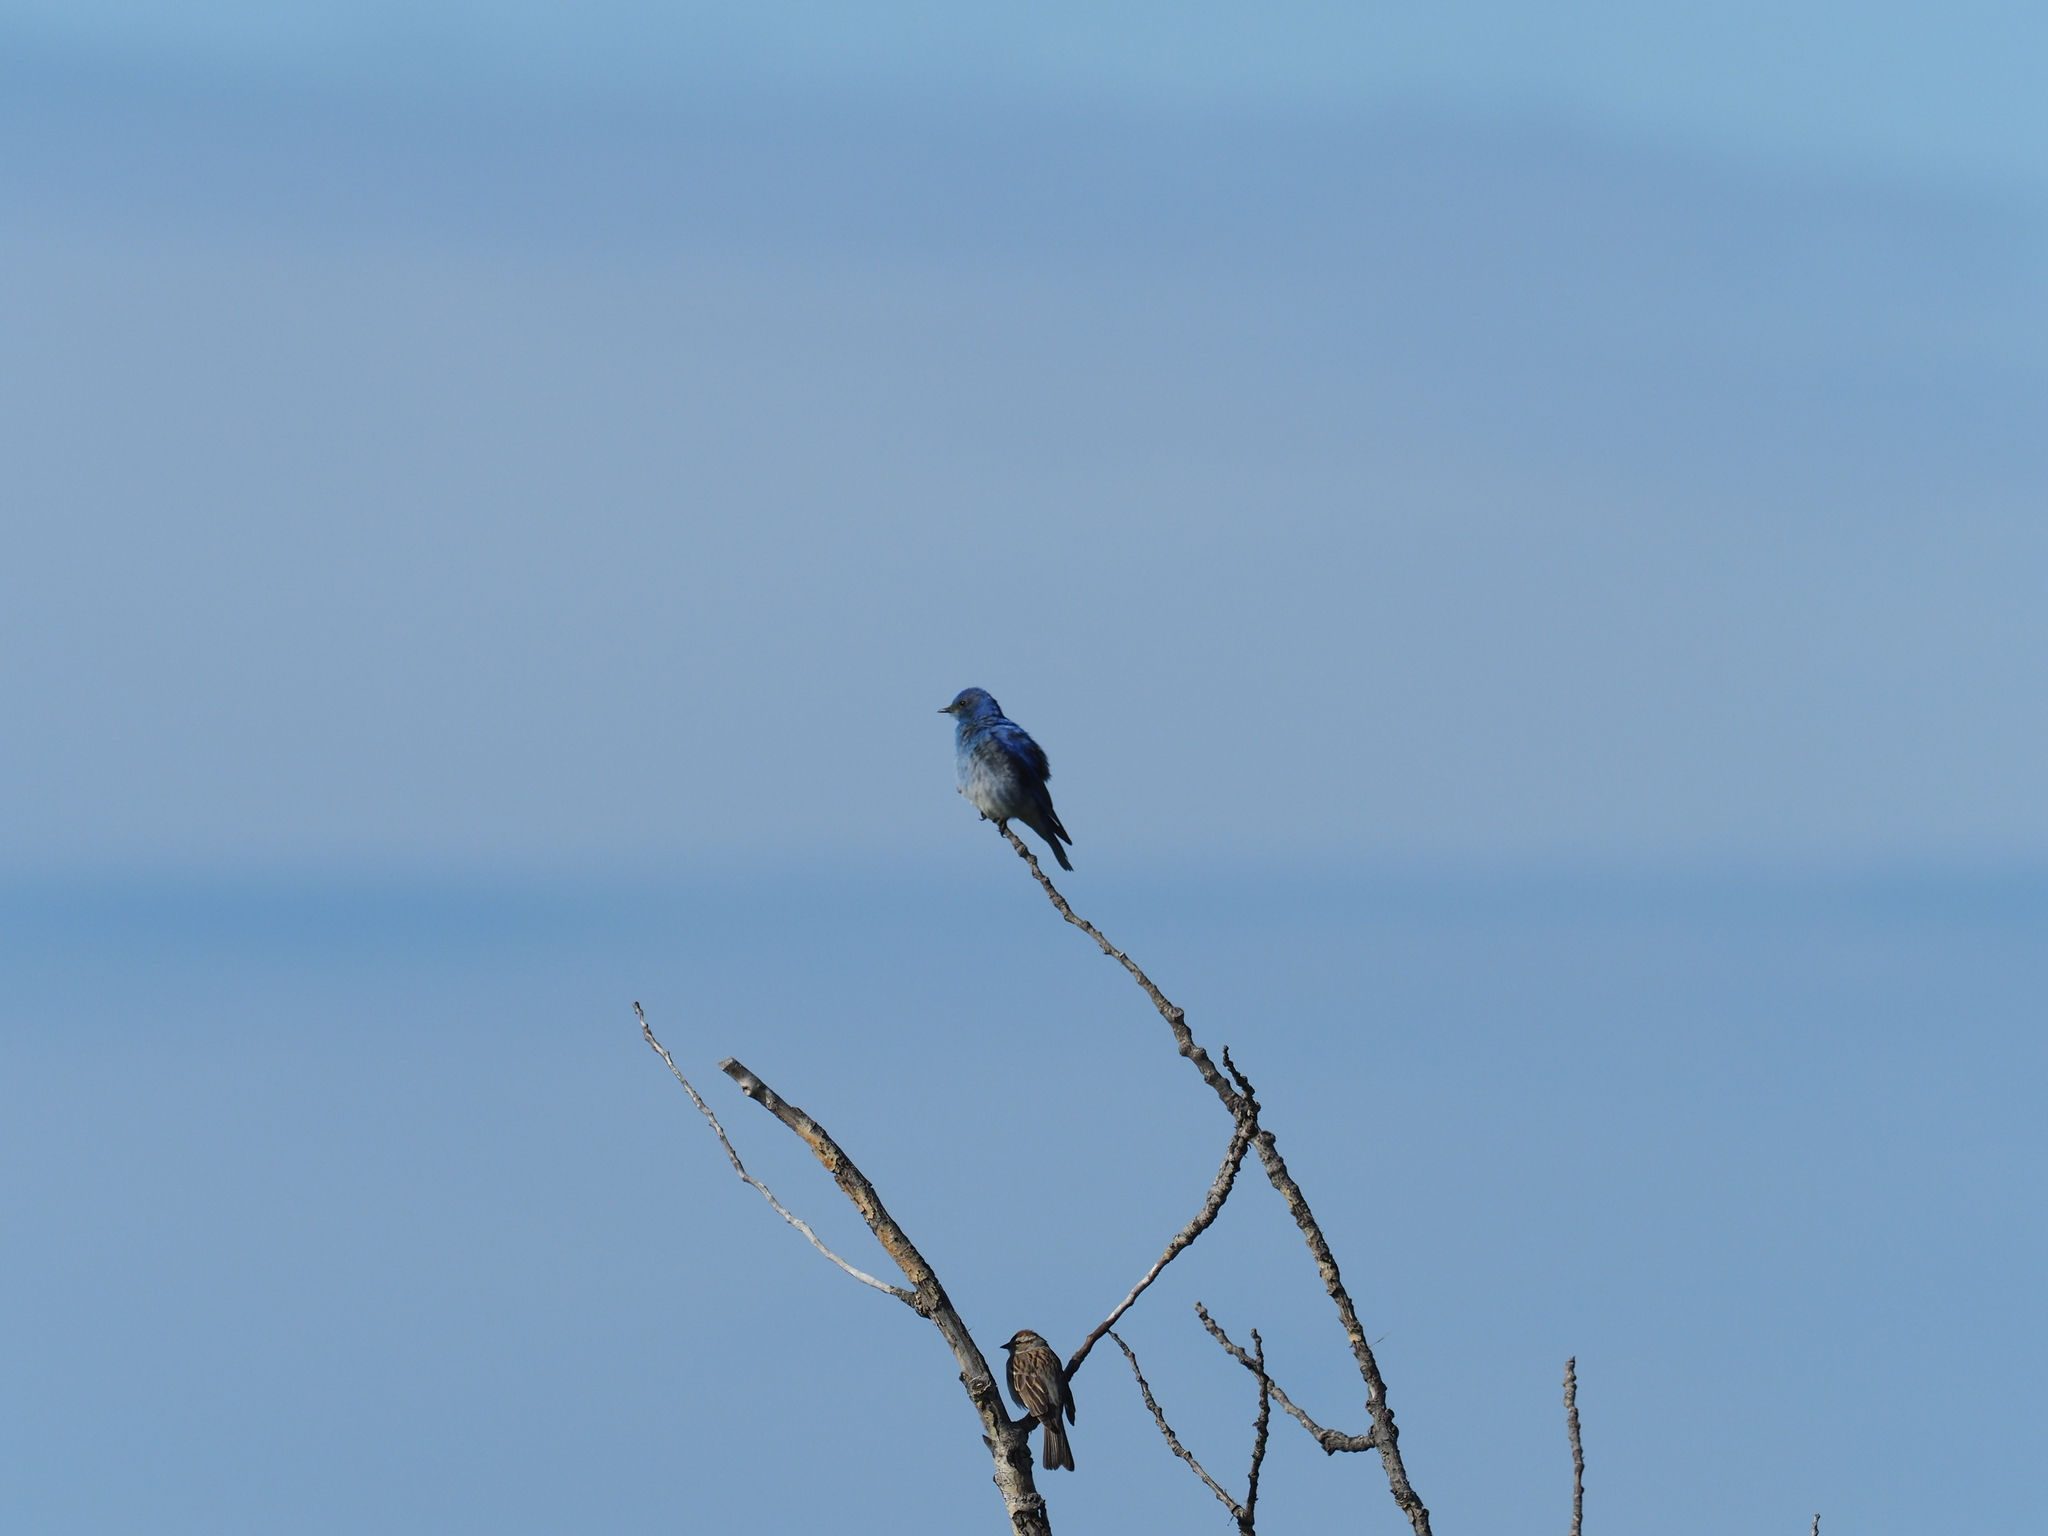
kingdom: Animalia
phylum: Chordata
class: Aves
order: Passeriformes
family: Turdidae
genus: Sialia
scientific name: Sialia currucoides
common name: Mountain bluebird
